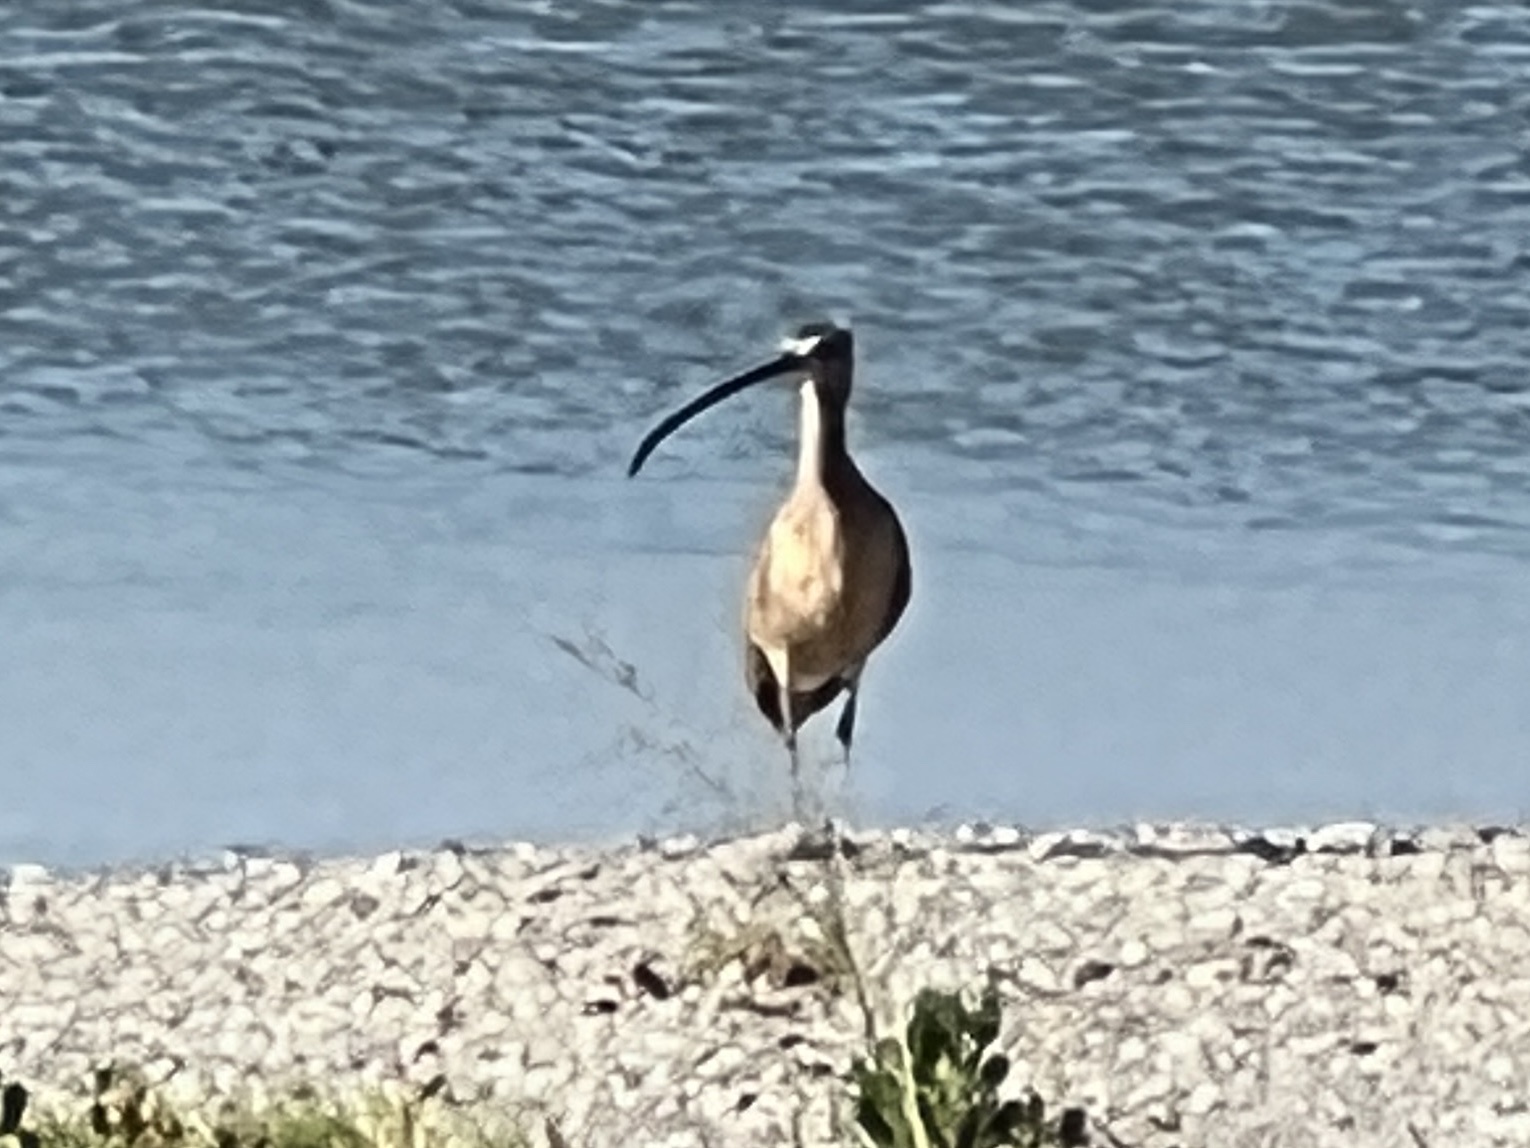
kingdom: Animalia
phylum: Chordata
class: Aves
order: Charadriiformes
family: Scolopacidae
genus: Numenius
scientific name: Numenius americanus
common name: Long-billed curlew
